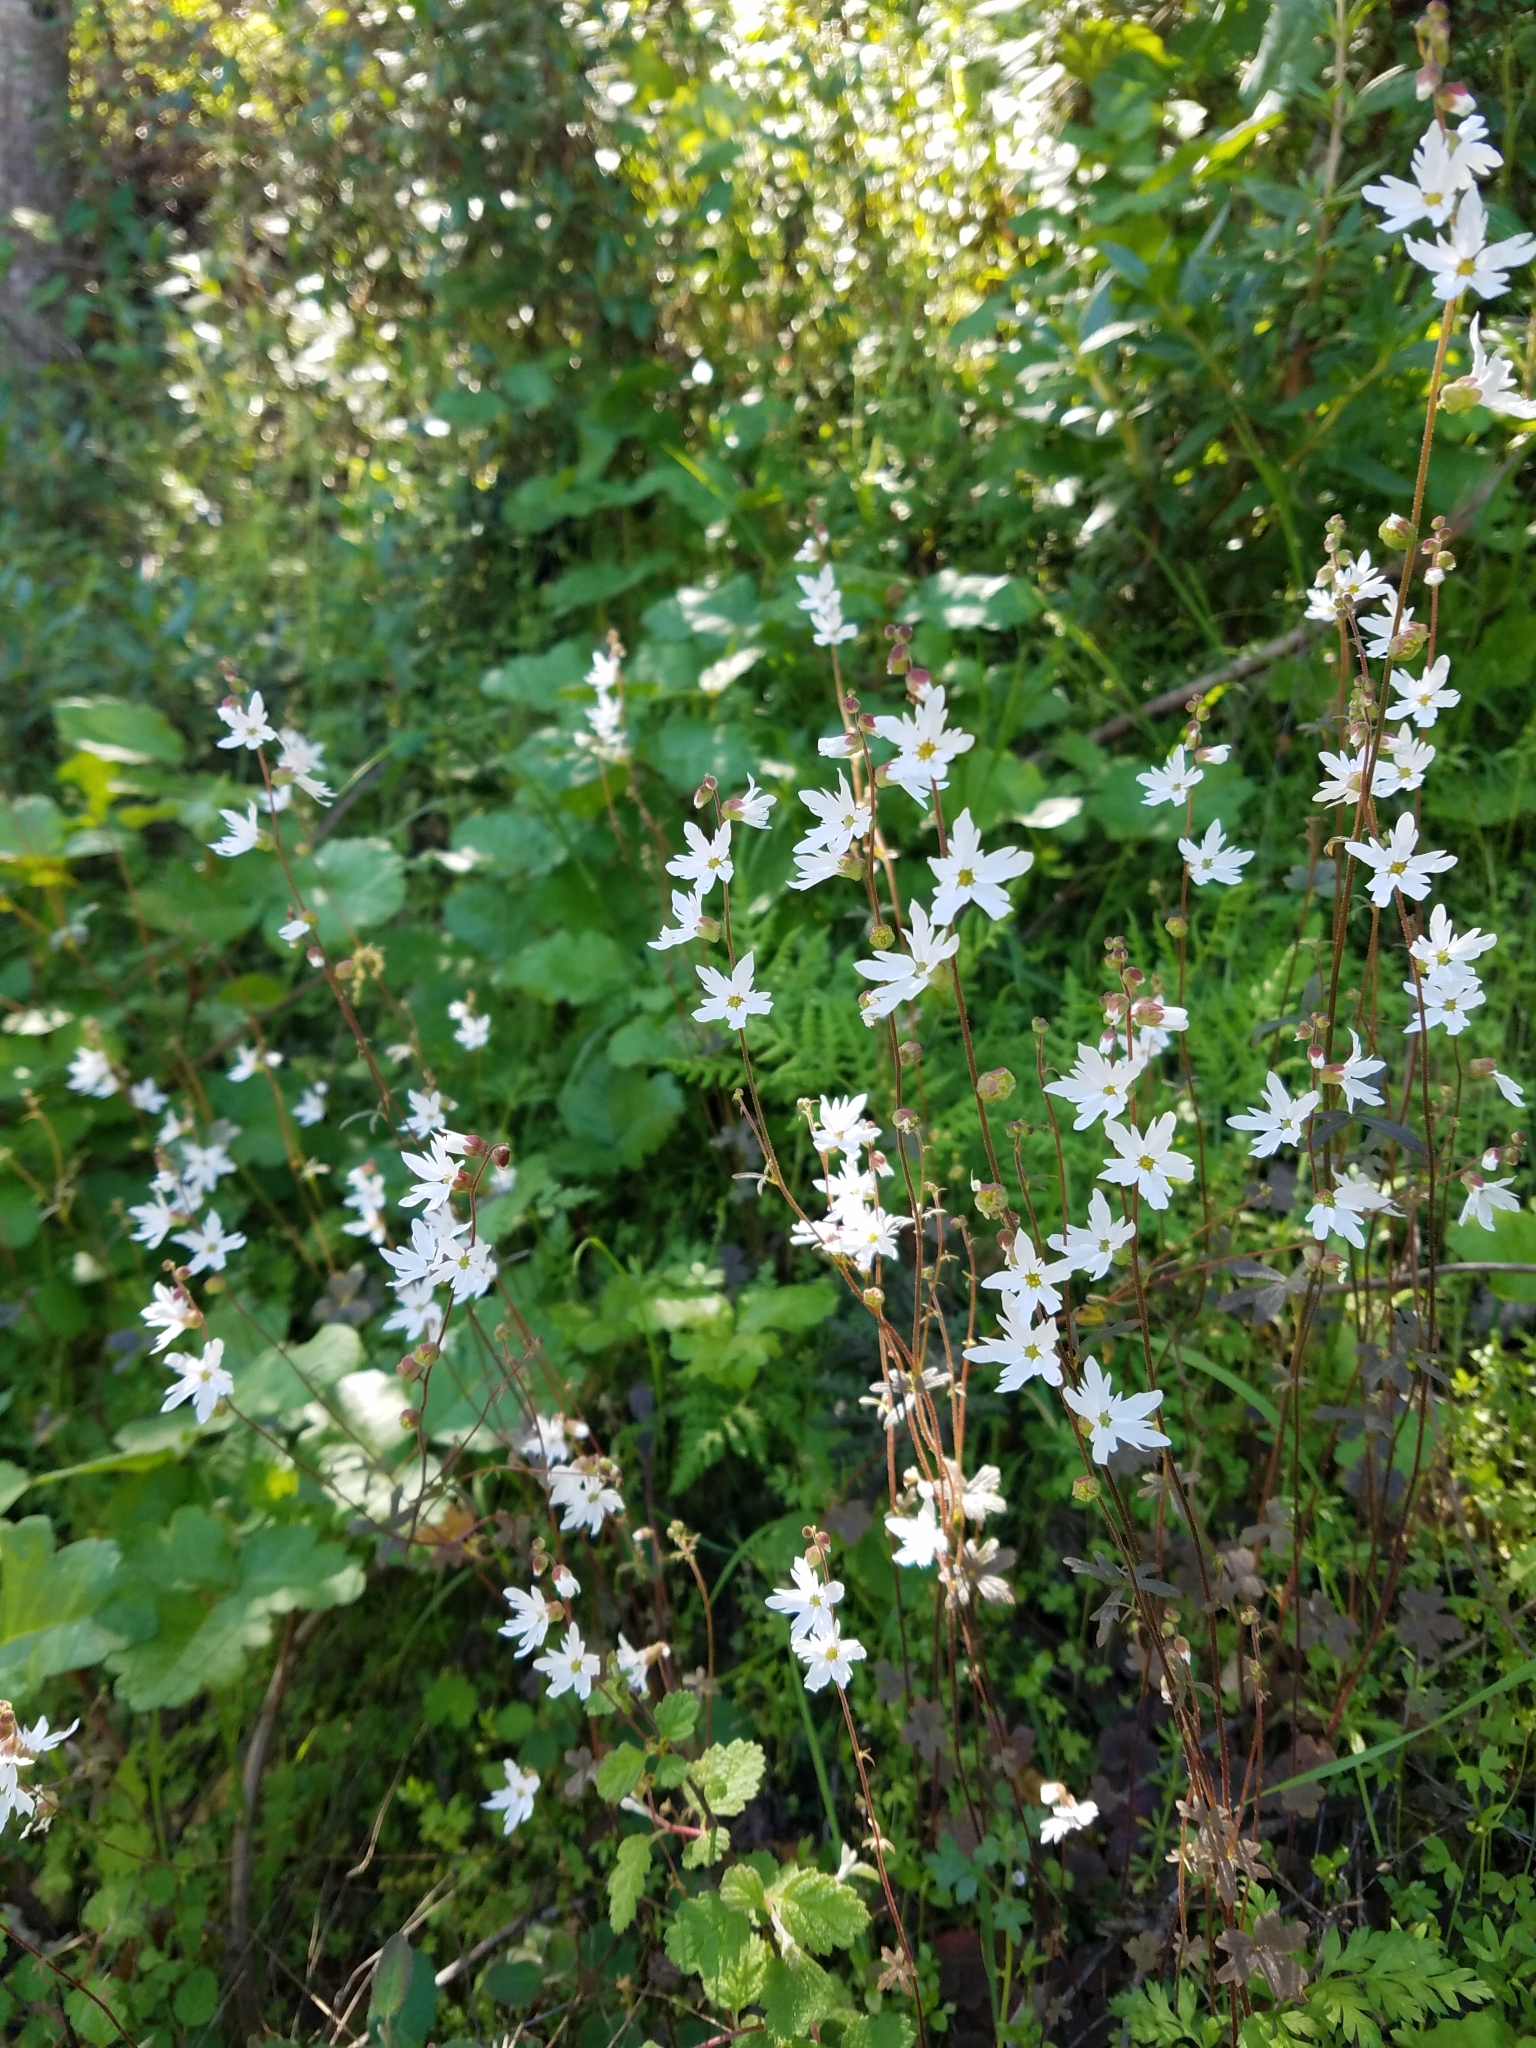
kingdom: Plantae
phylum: Tracheophyta
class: Magnoliopsida
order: Saxifragales
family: Saxifragaceae
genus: Lithophragma
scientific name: Lithophragma heterophyllum
